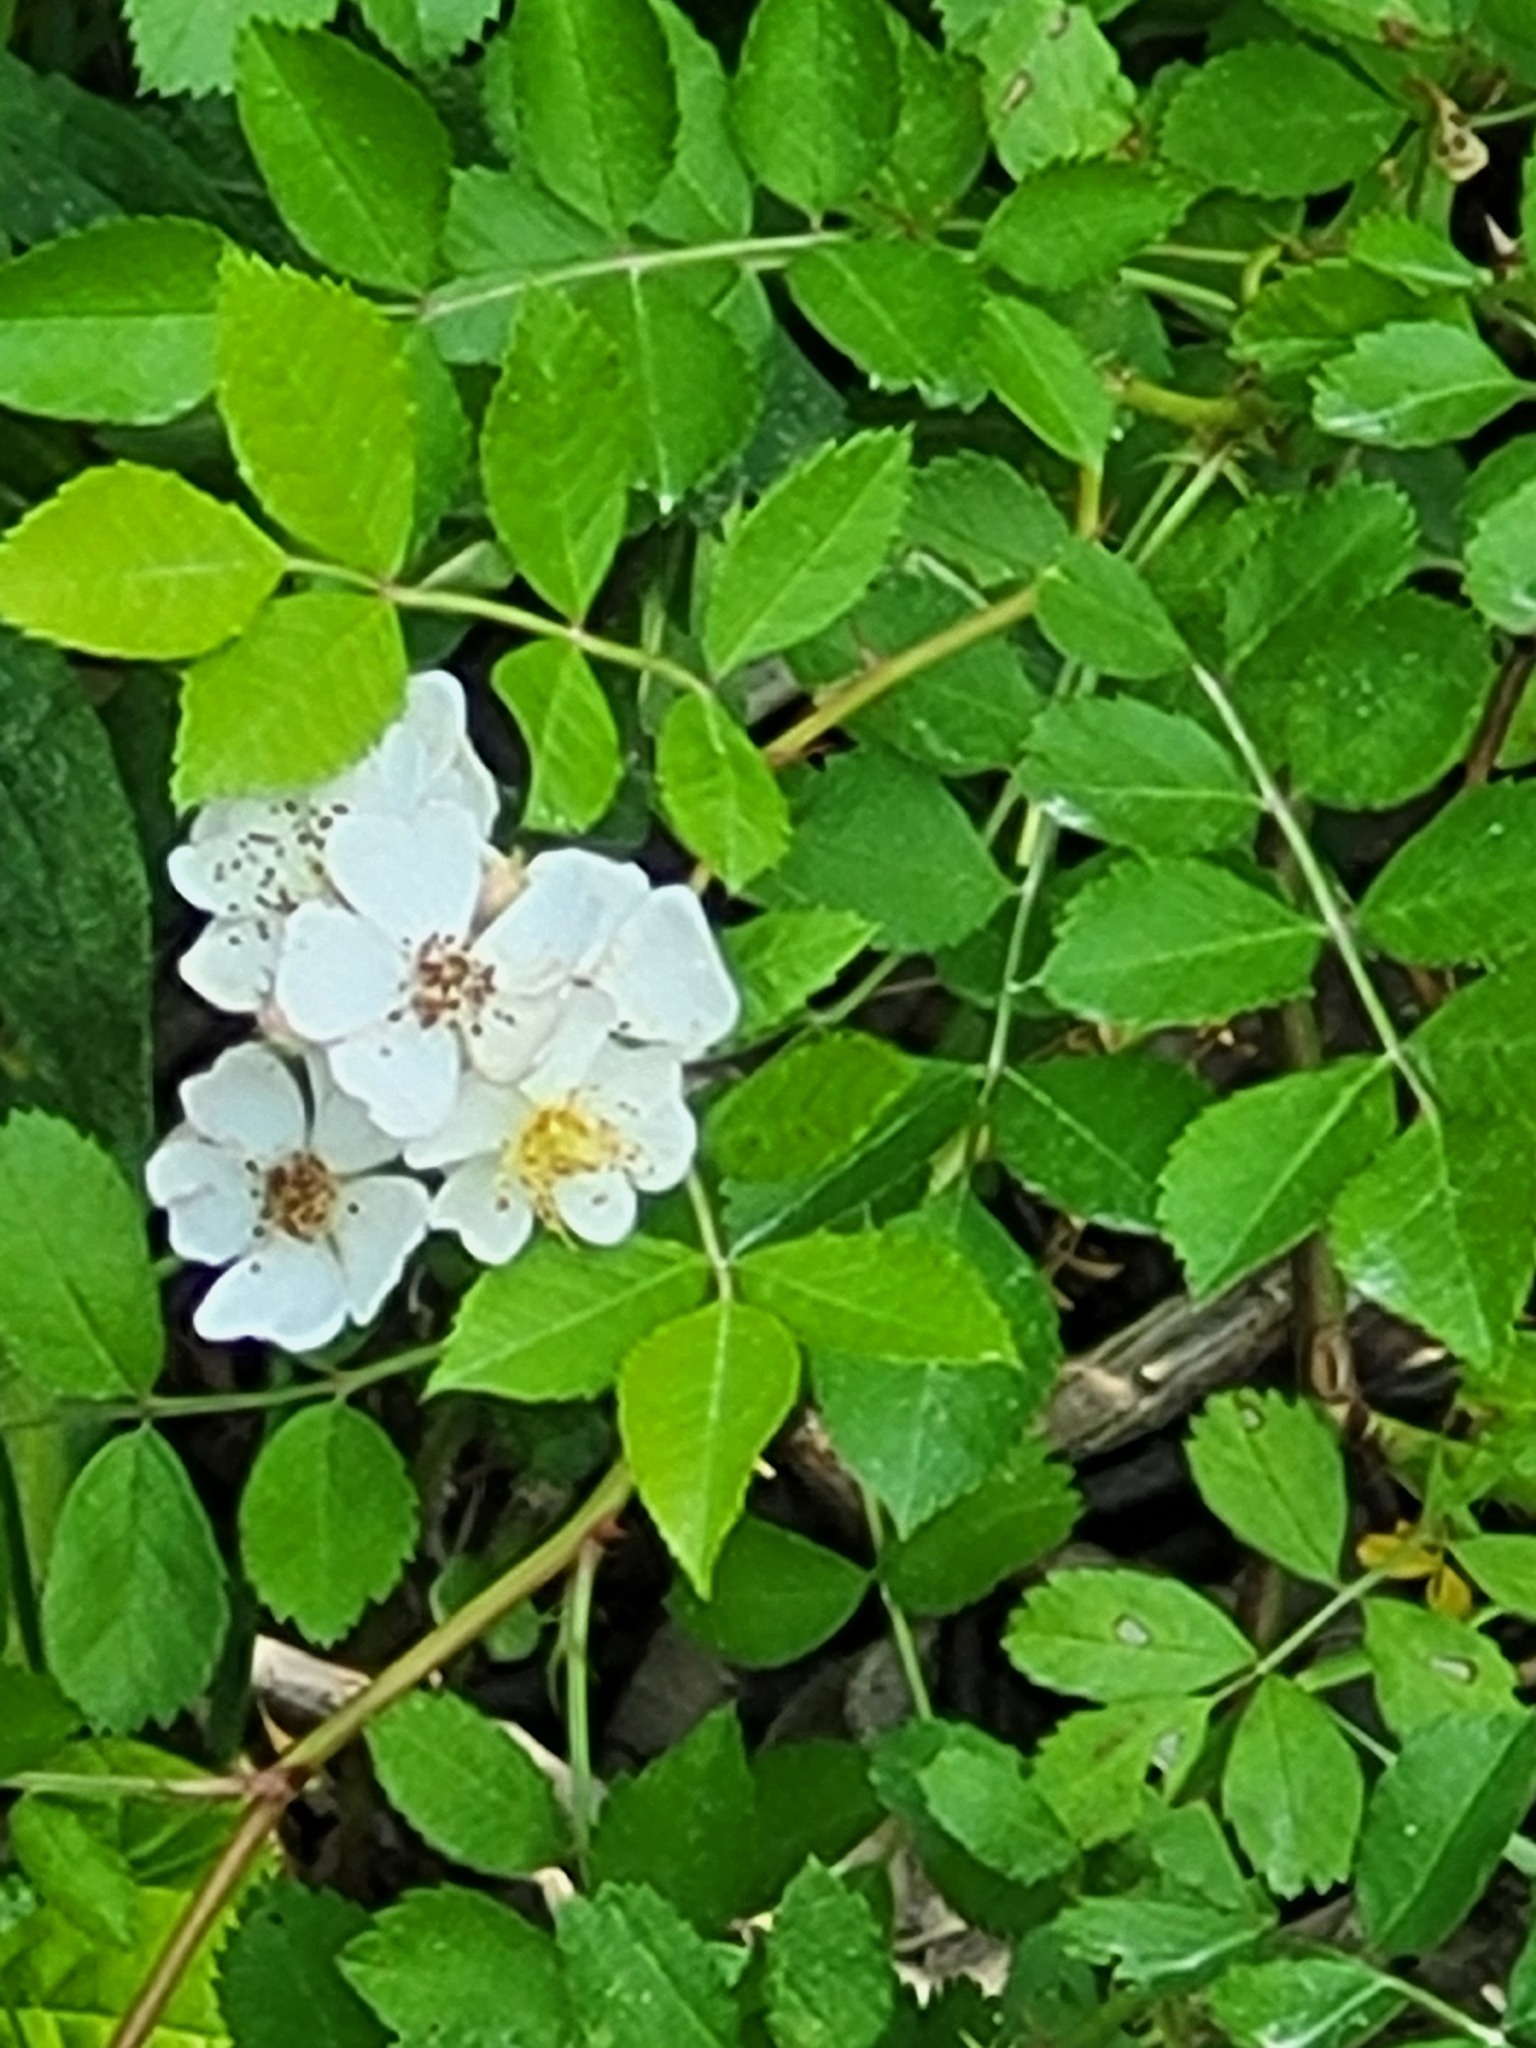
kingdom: Plantae
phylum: Tracheophyta
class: Magnoliopsida
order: Rosales
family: Rosaceae
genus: Rosa
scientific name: Rosa multiflora
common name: Multiflora rose
